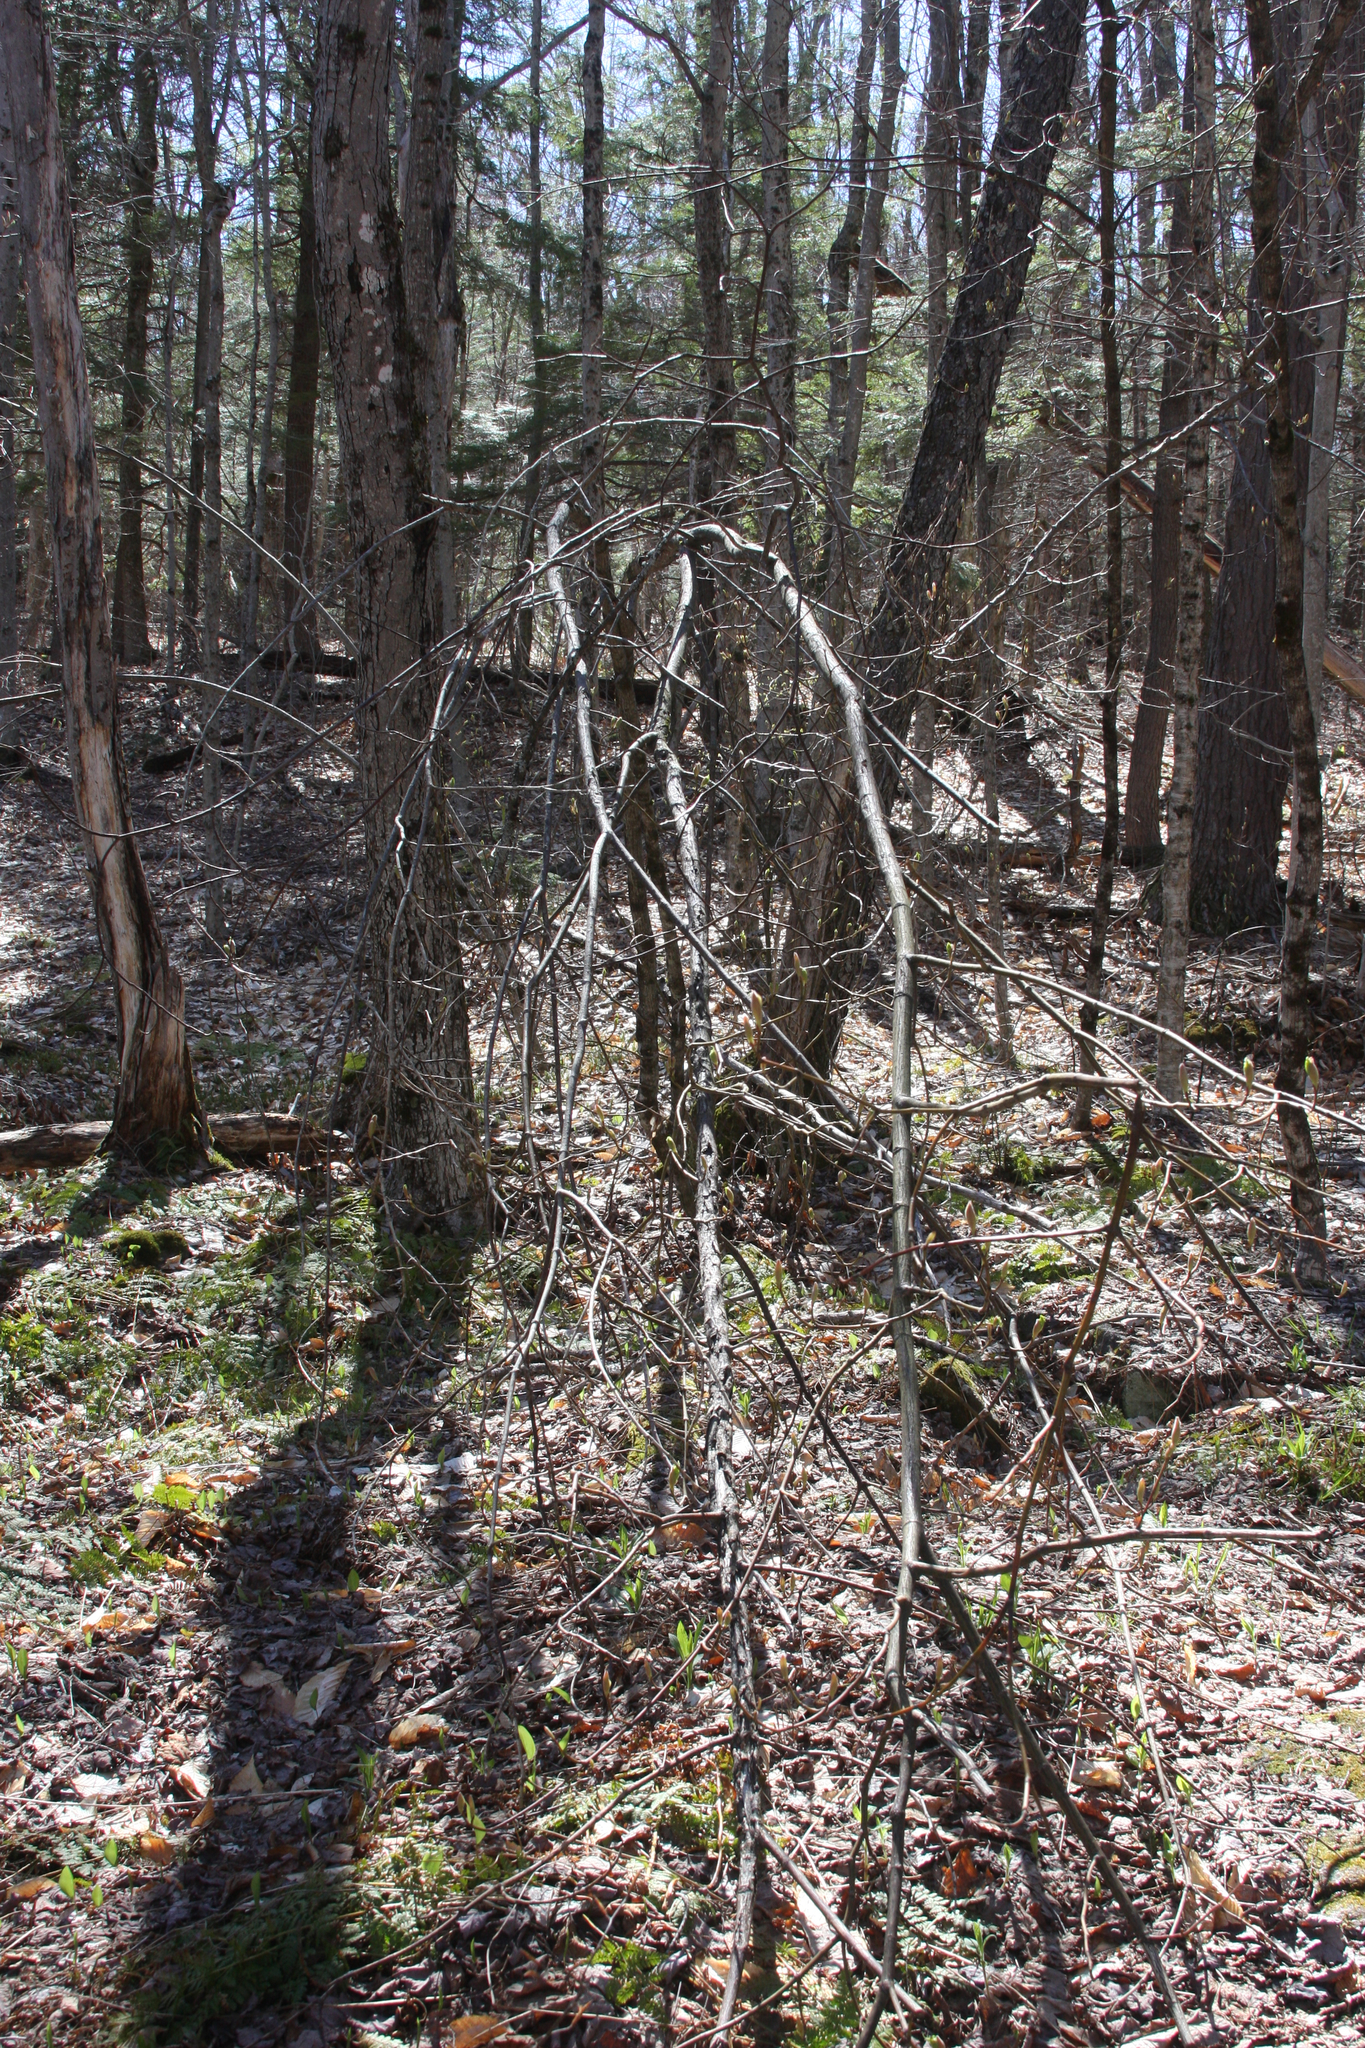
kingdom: Plantae
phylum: Tracheophyta
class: Magnoliopsida
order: Sapindales
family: Sapindaceae
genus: Acer
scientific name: Acer pensylvanicum
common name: Moosewood
